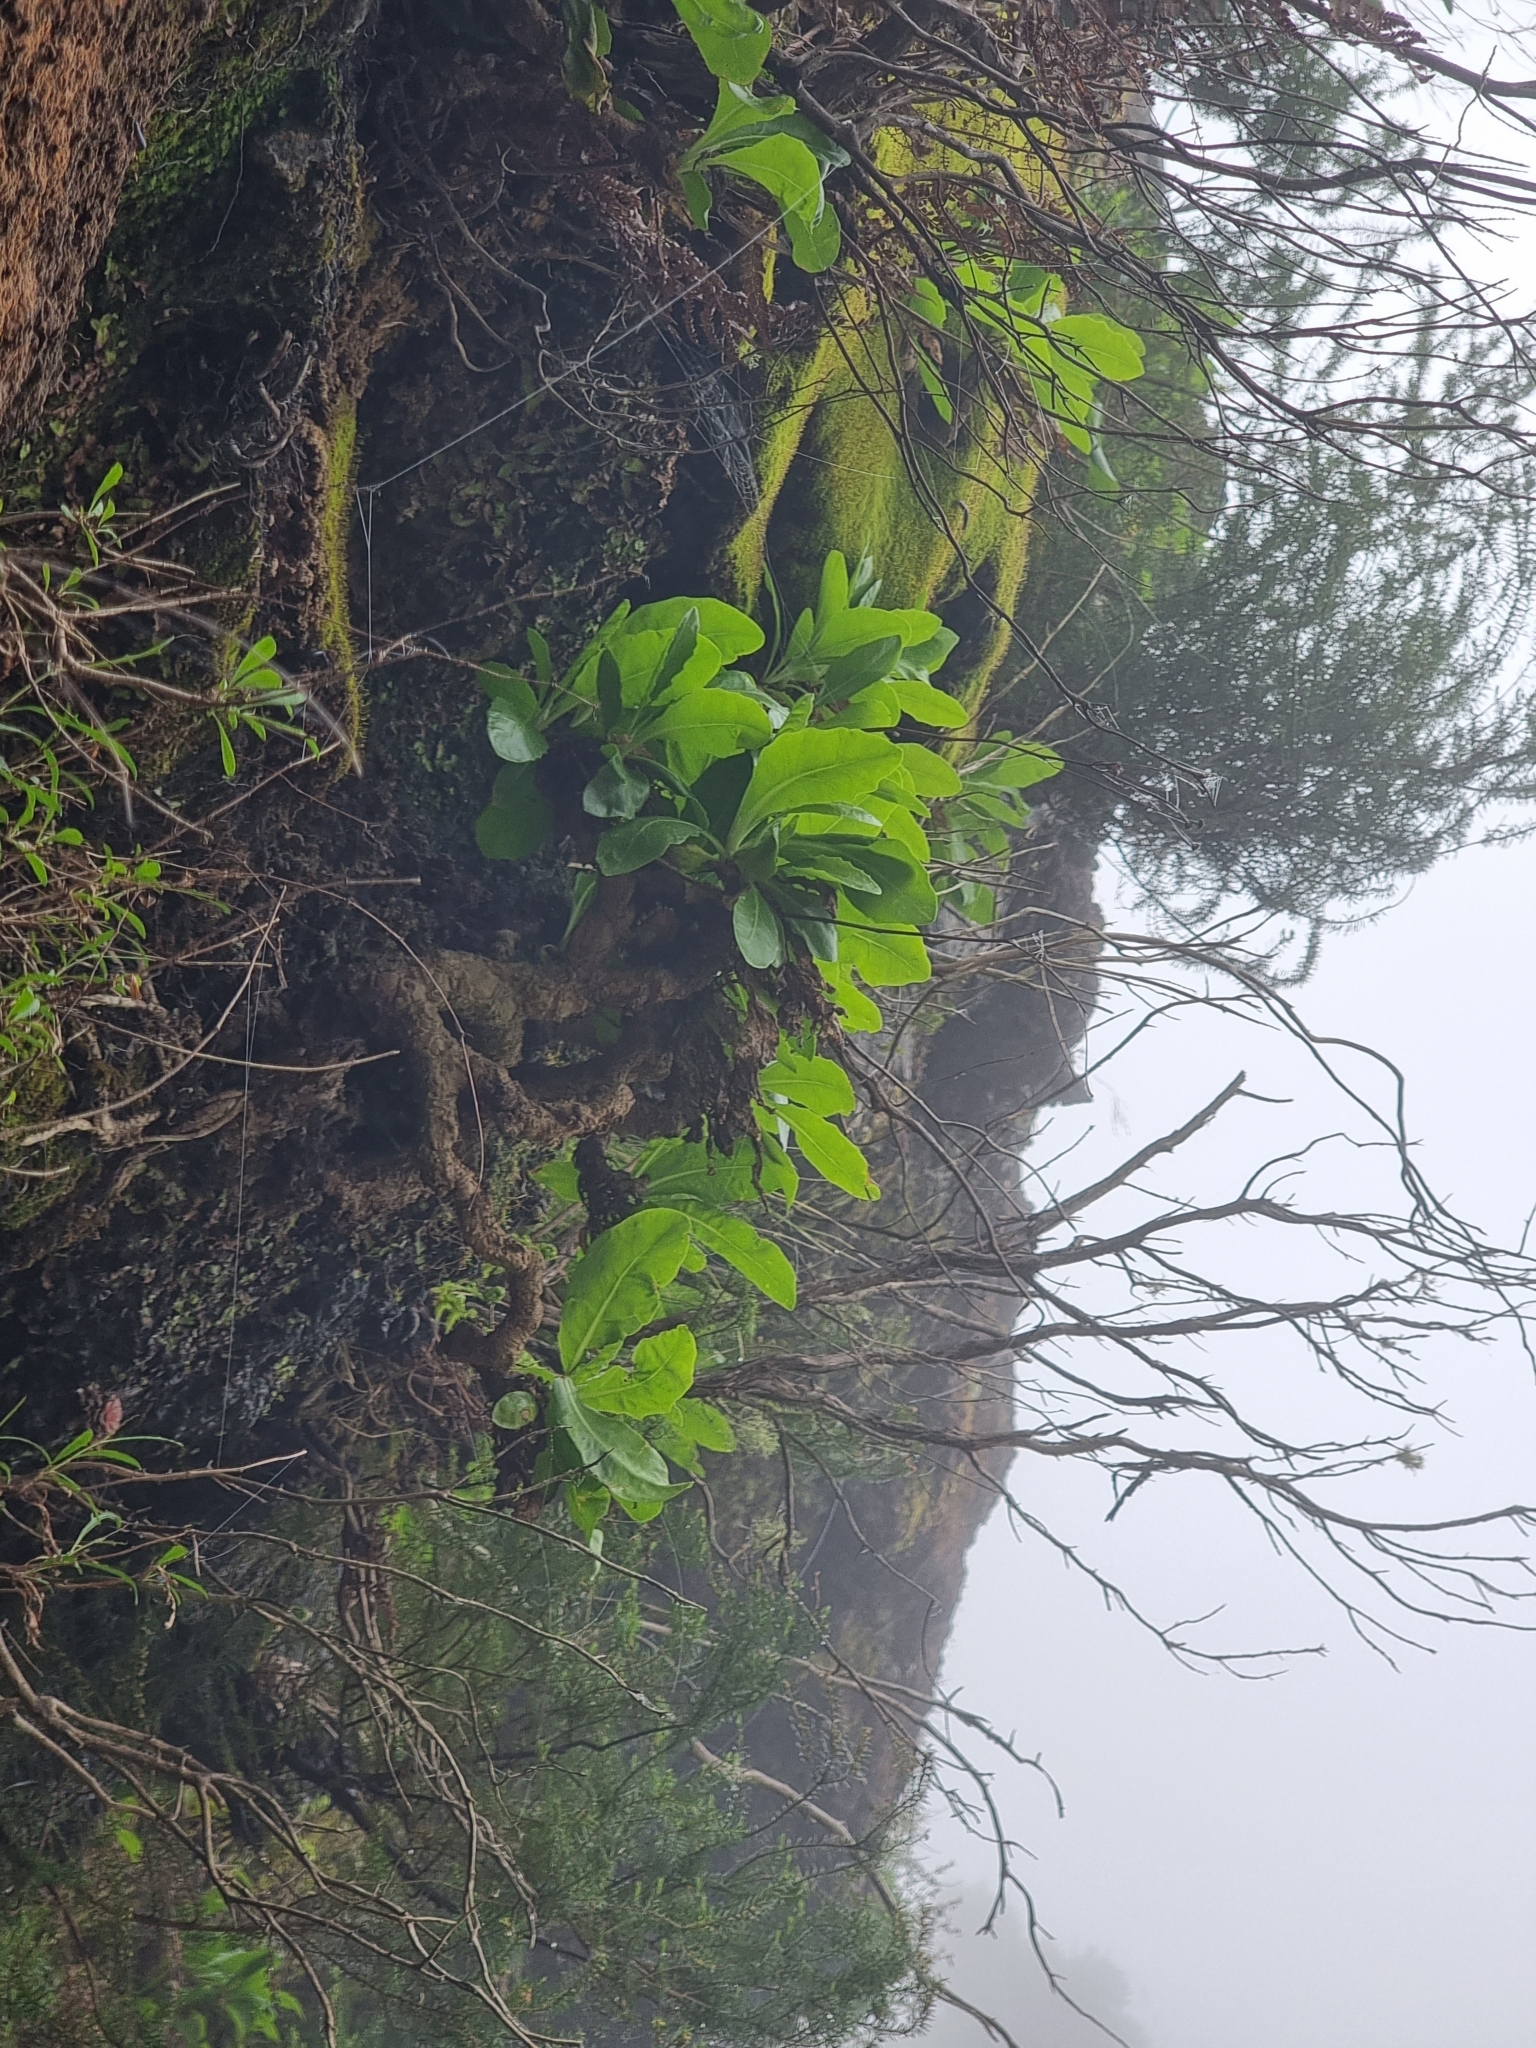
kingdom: Plantae
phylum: Tracheophyta
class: Magnoliopsida
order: Asterales
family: Asteraceae
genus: Tolpis
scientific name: Tolpis macrorhiza
